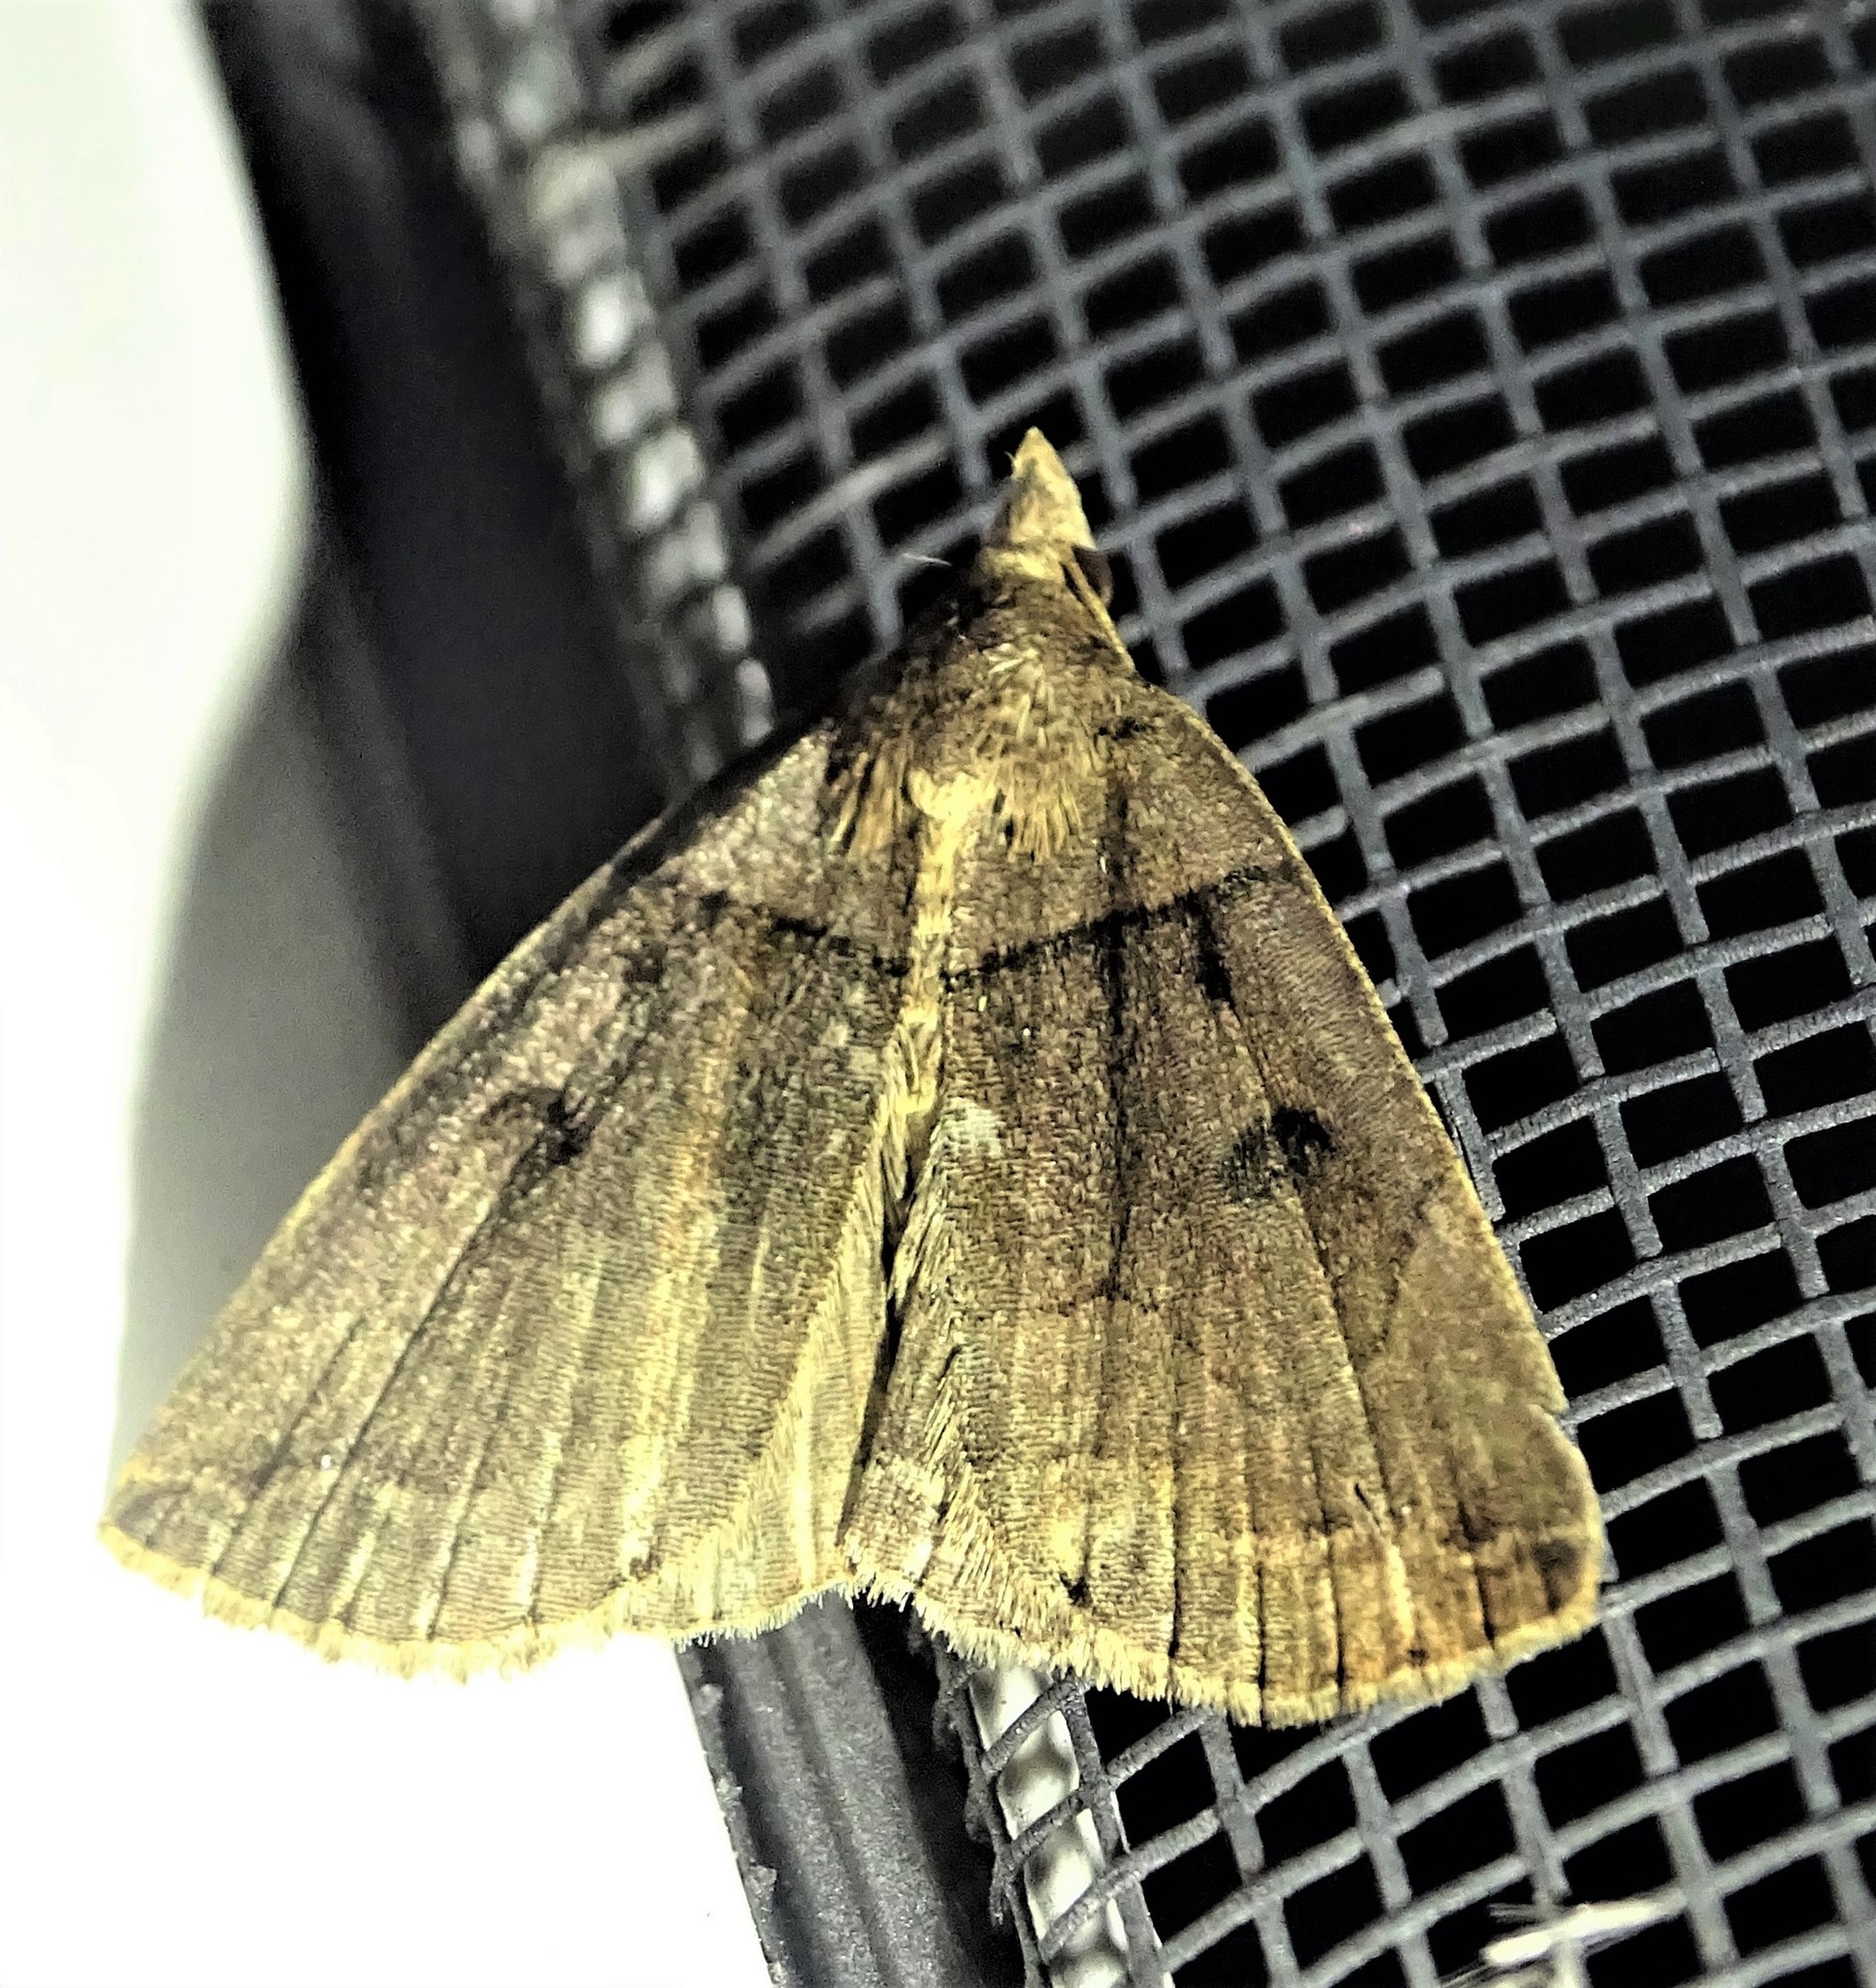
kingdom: Animalia
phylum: Arthropoda
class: Insecta
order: Lepidoptera
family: Erebidae
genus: Zanclognatha
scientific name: Zanclognatha laevigata
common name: Variable fan-foot
